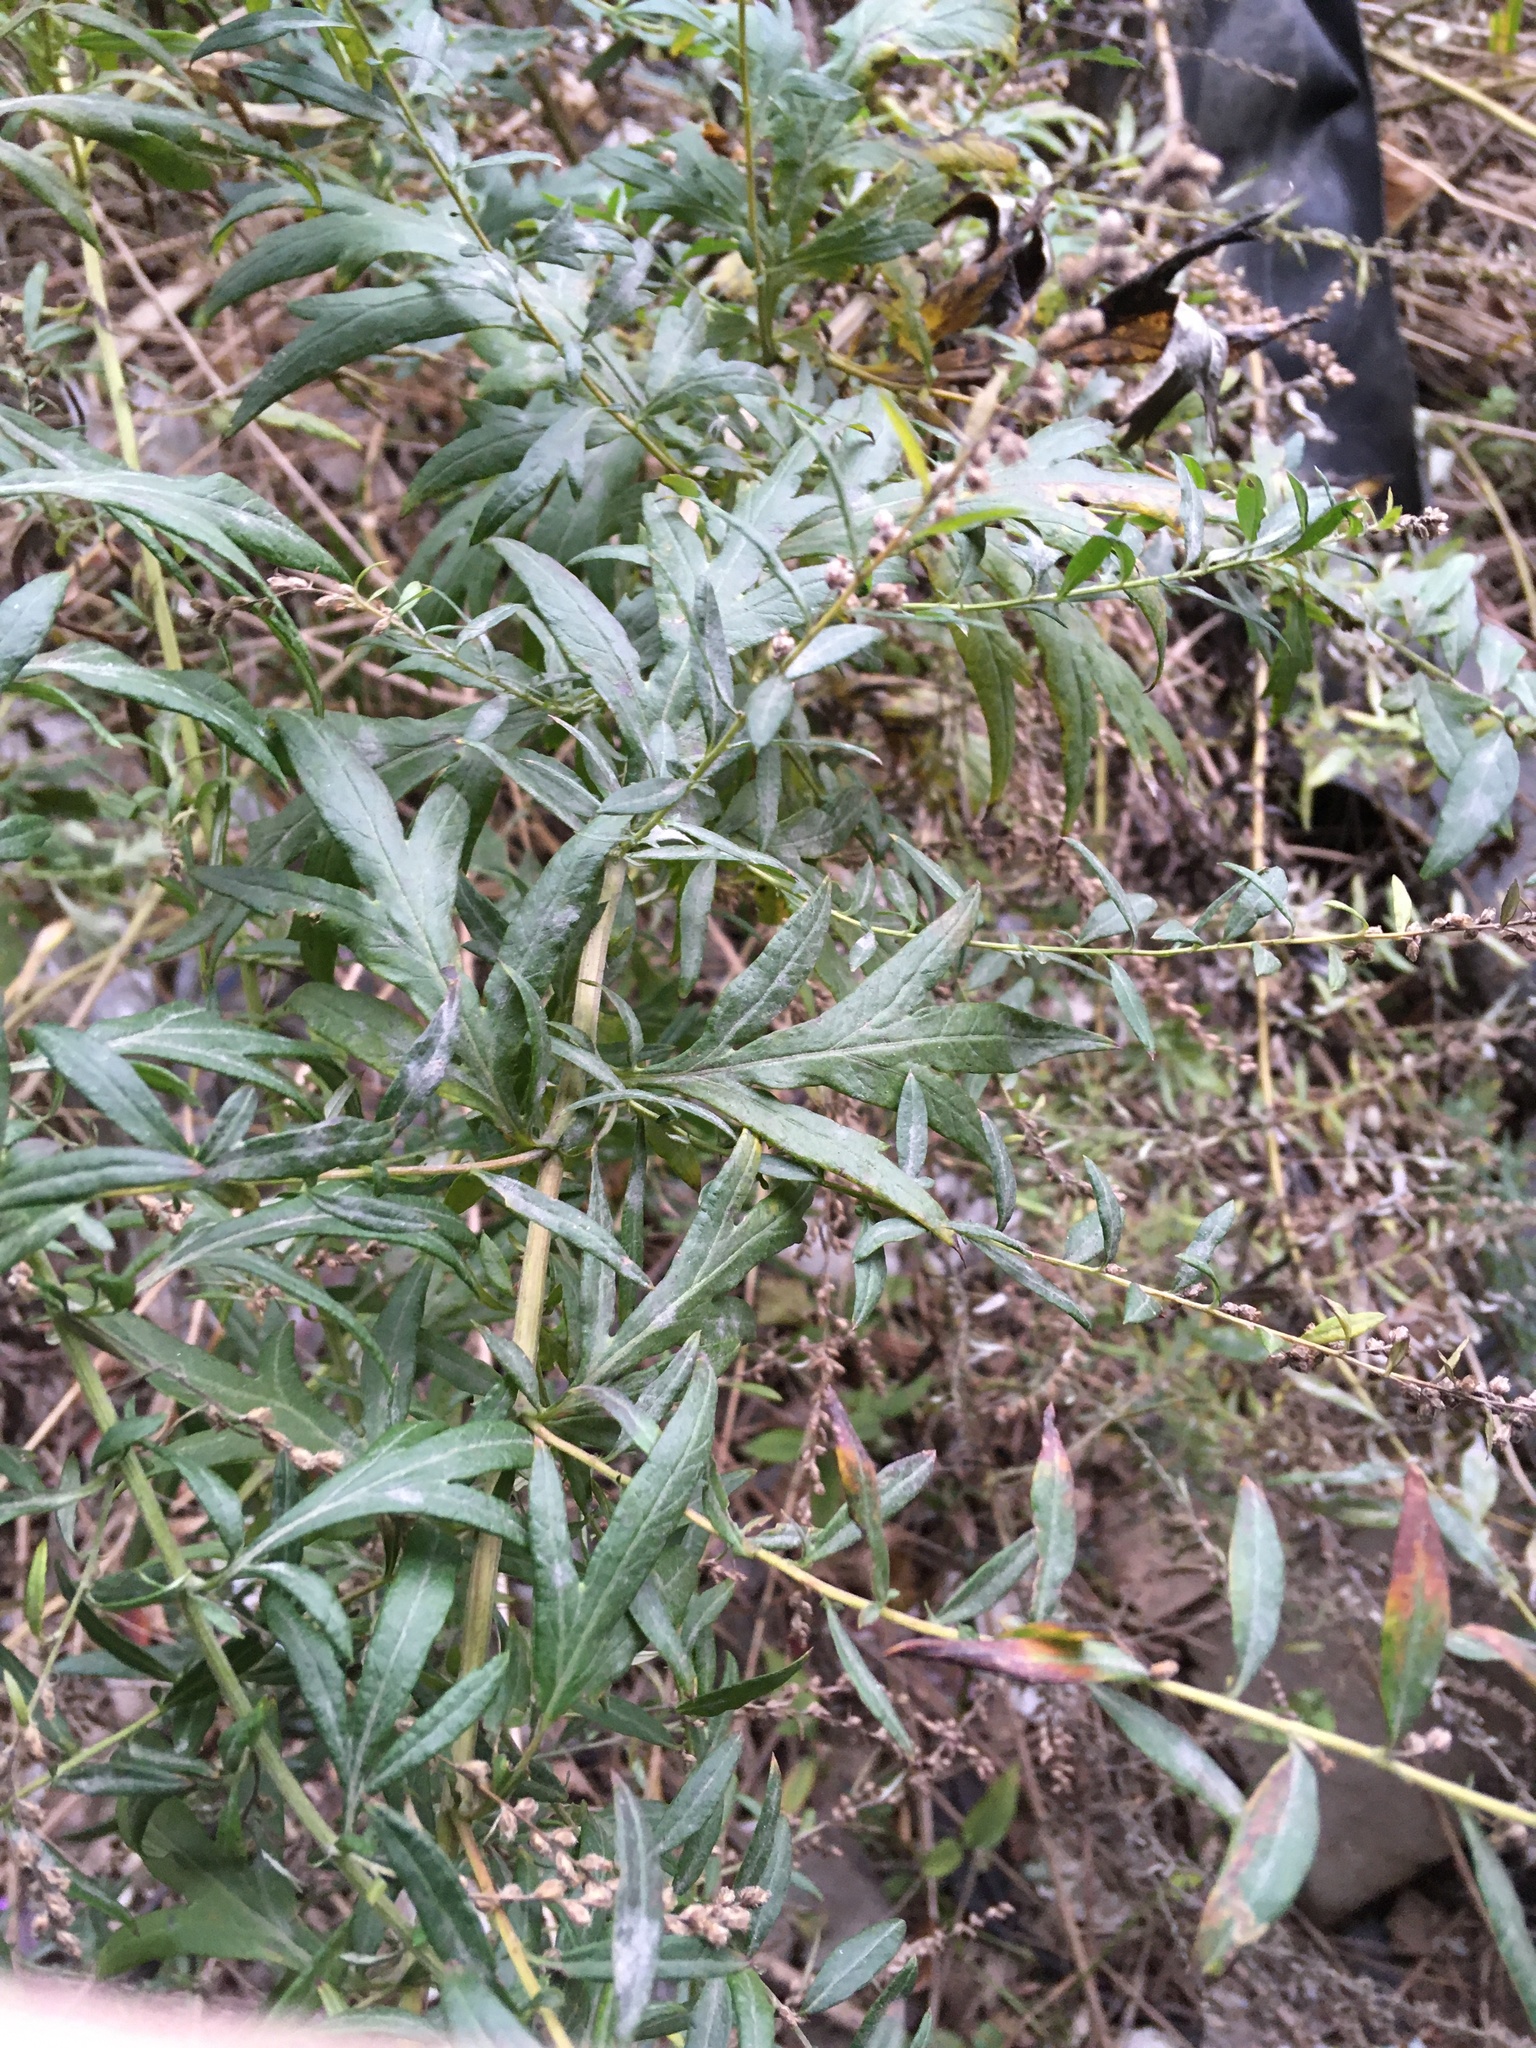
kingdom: Plantae
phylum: Tracheophyta
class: Magnoliopsida
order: Asterales
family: Asteraceae
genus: Artemisia
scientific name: Artemisia vulgaris
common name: Mugwort
